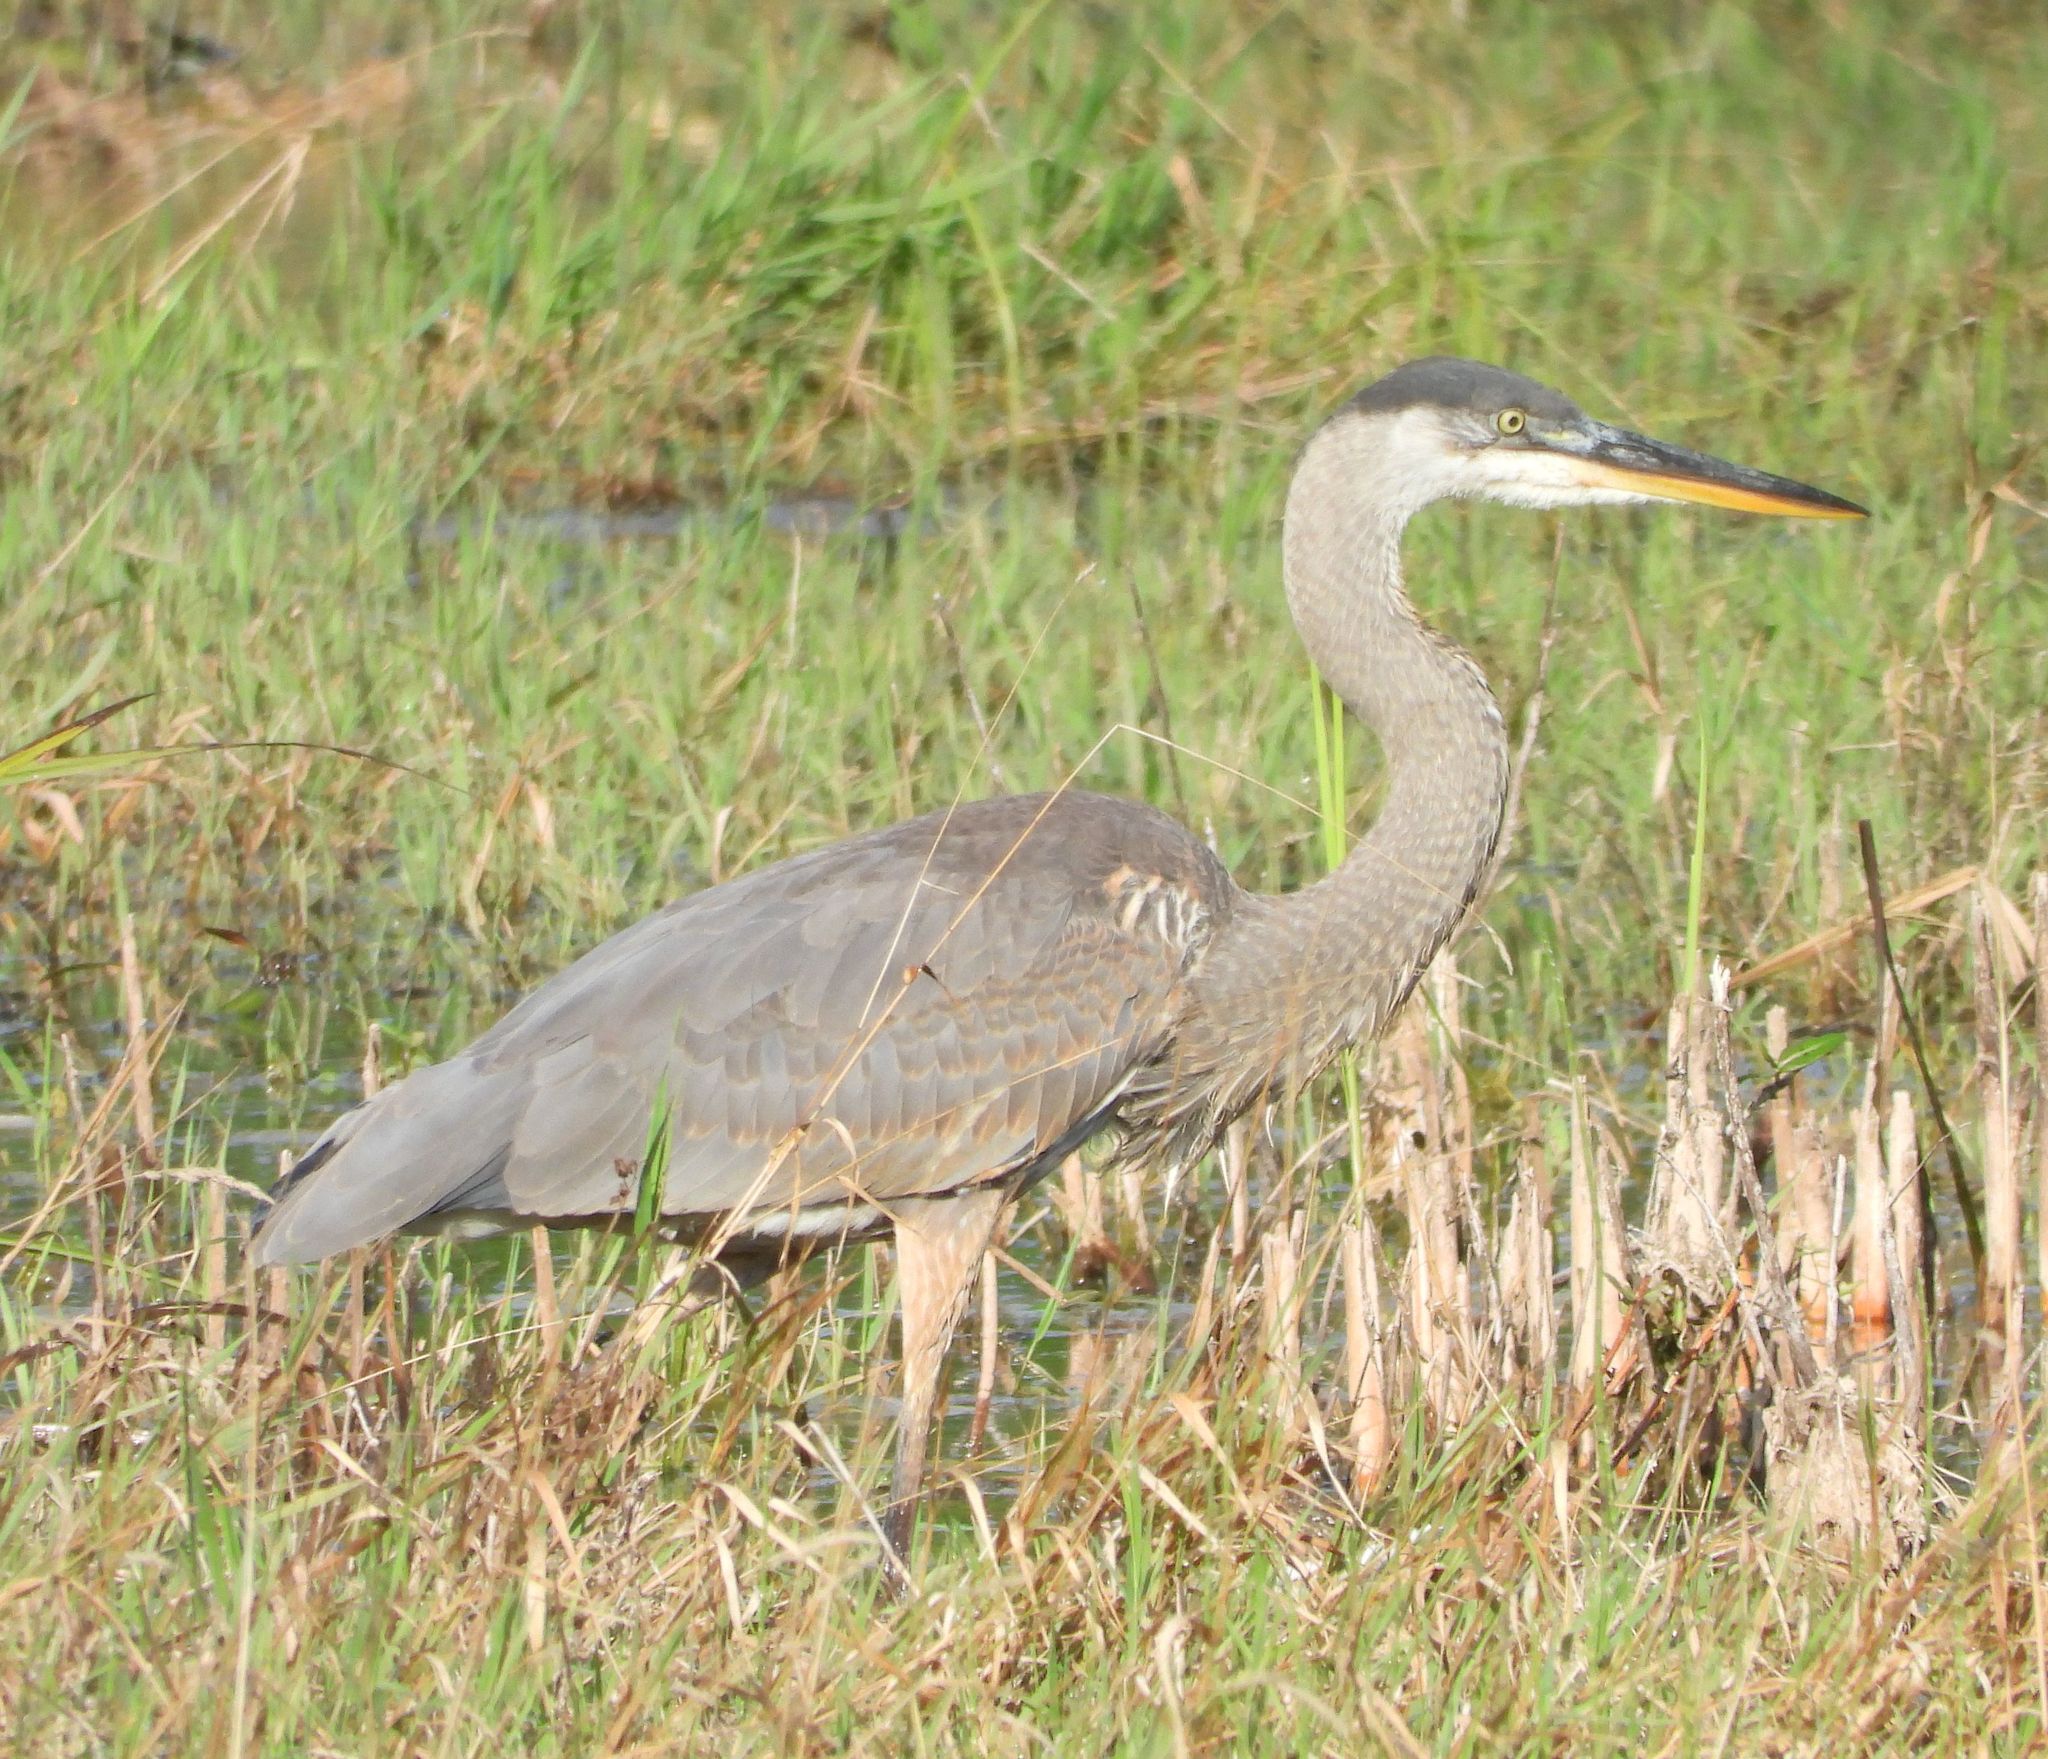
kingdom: Animalia
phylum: Chordata
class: Aves
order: Pelecaniformes
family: Ardeidae
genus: Ardea
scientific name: Ardea herodias
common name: Great blue heron
